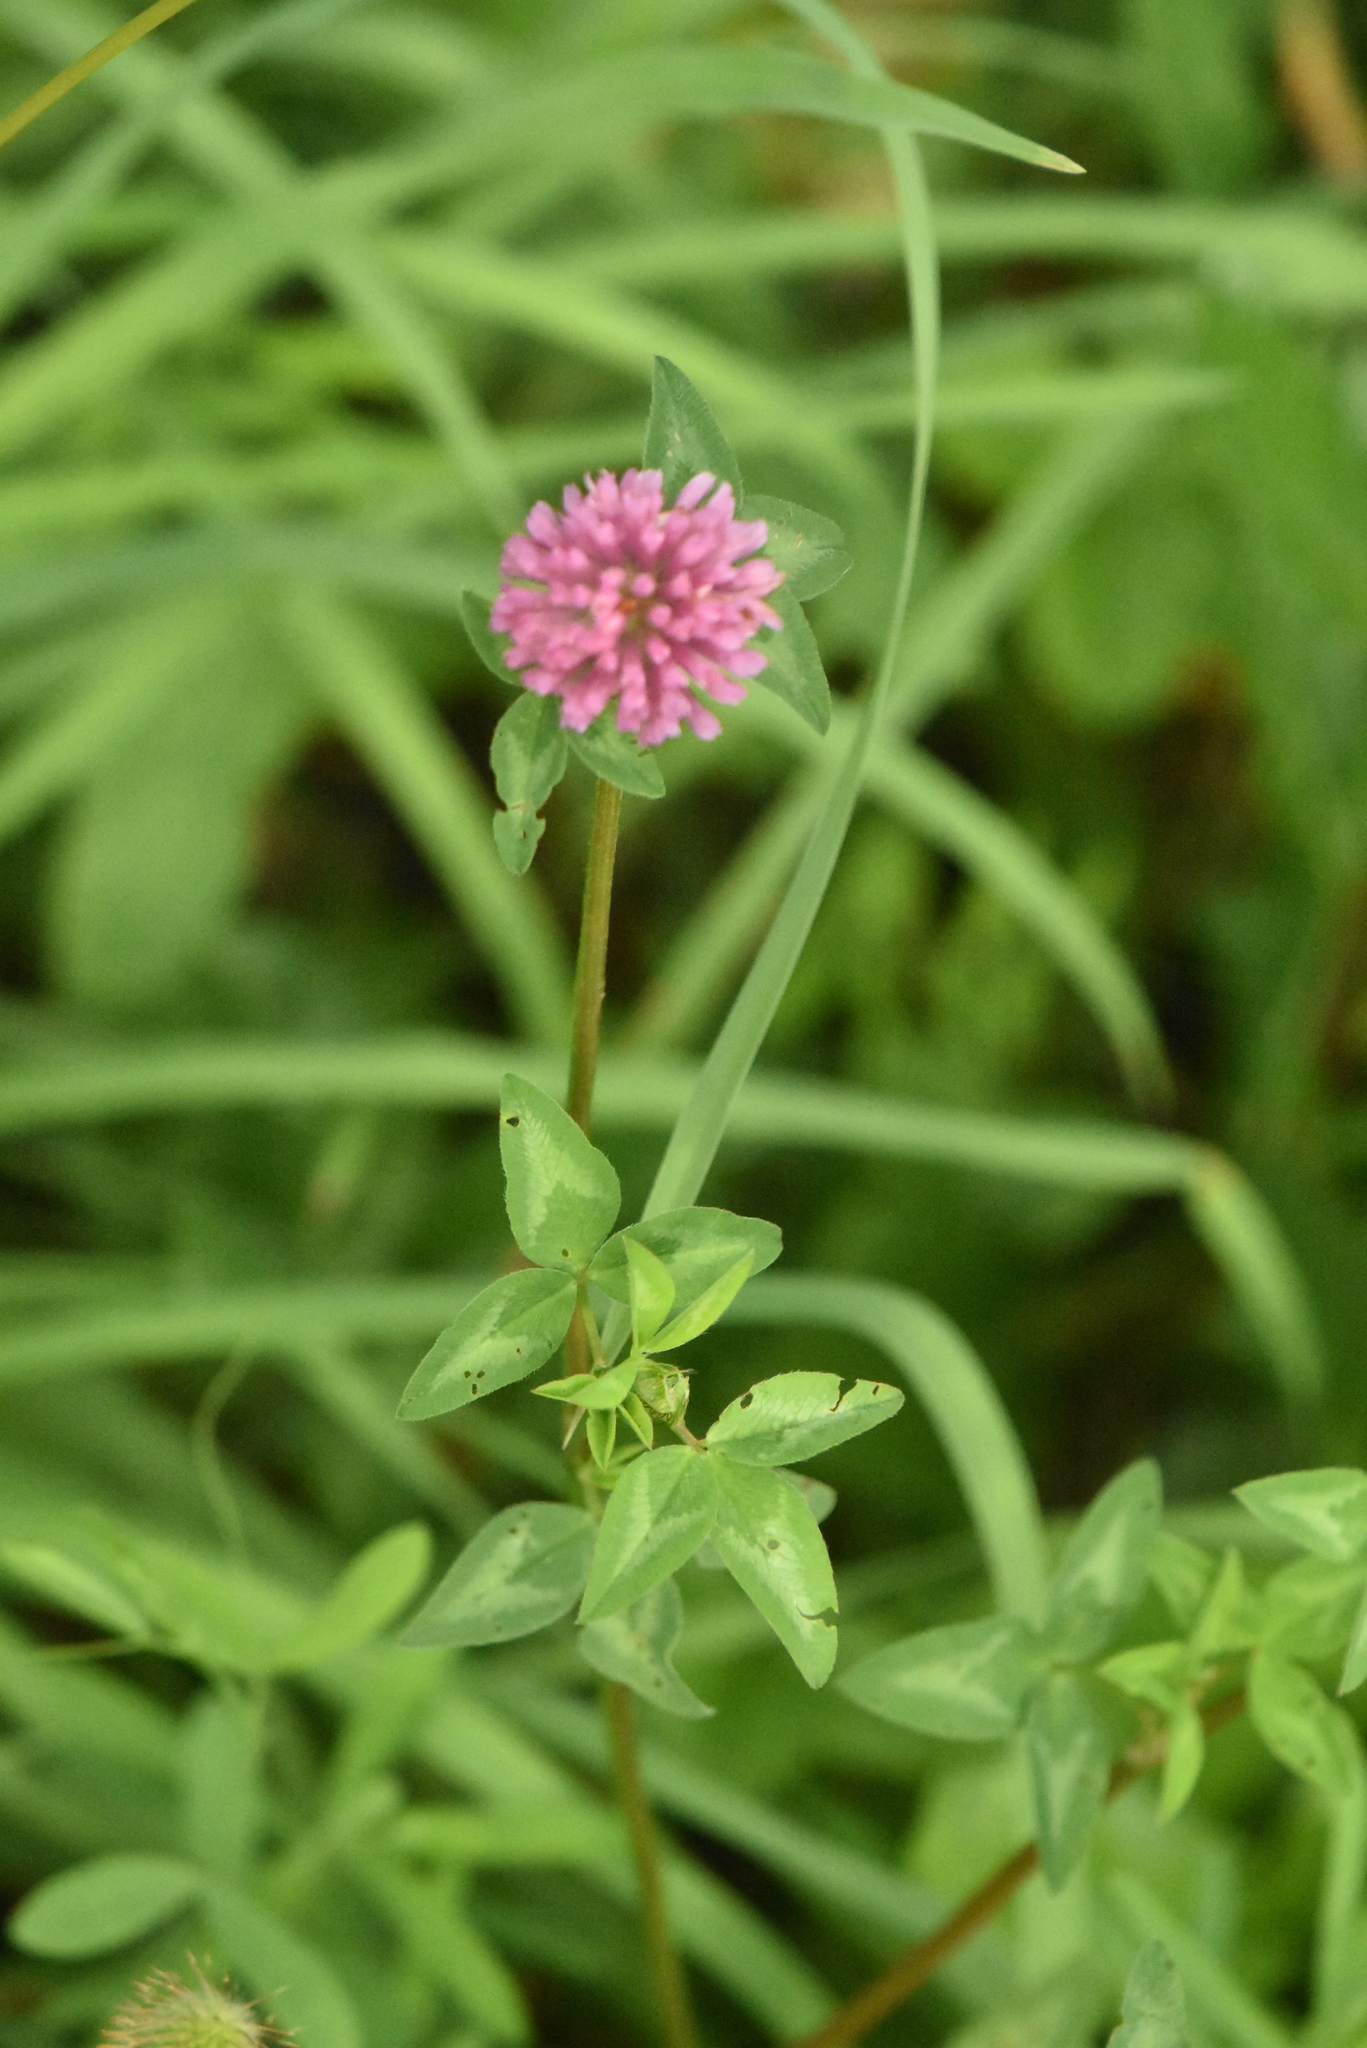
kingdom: Plantae
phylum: Tracheophyta
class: Magnoliopsida
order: Fabales
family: Fabaceae
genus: Trifolium
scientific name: Trifolium pratense
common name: Red clover
